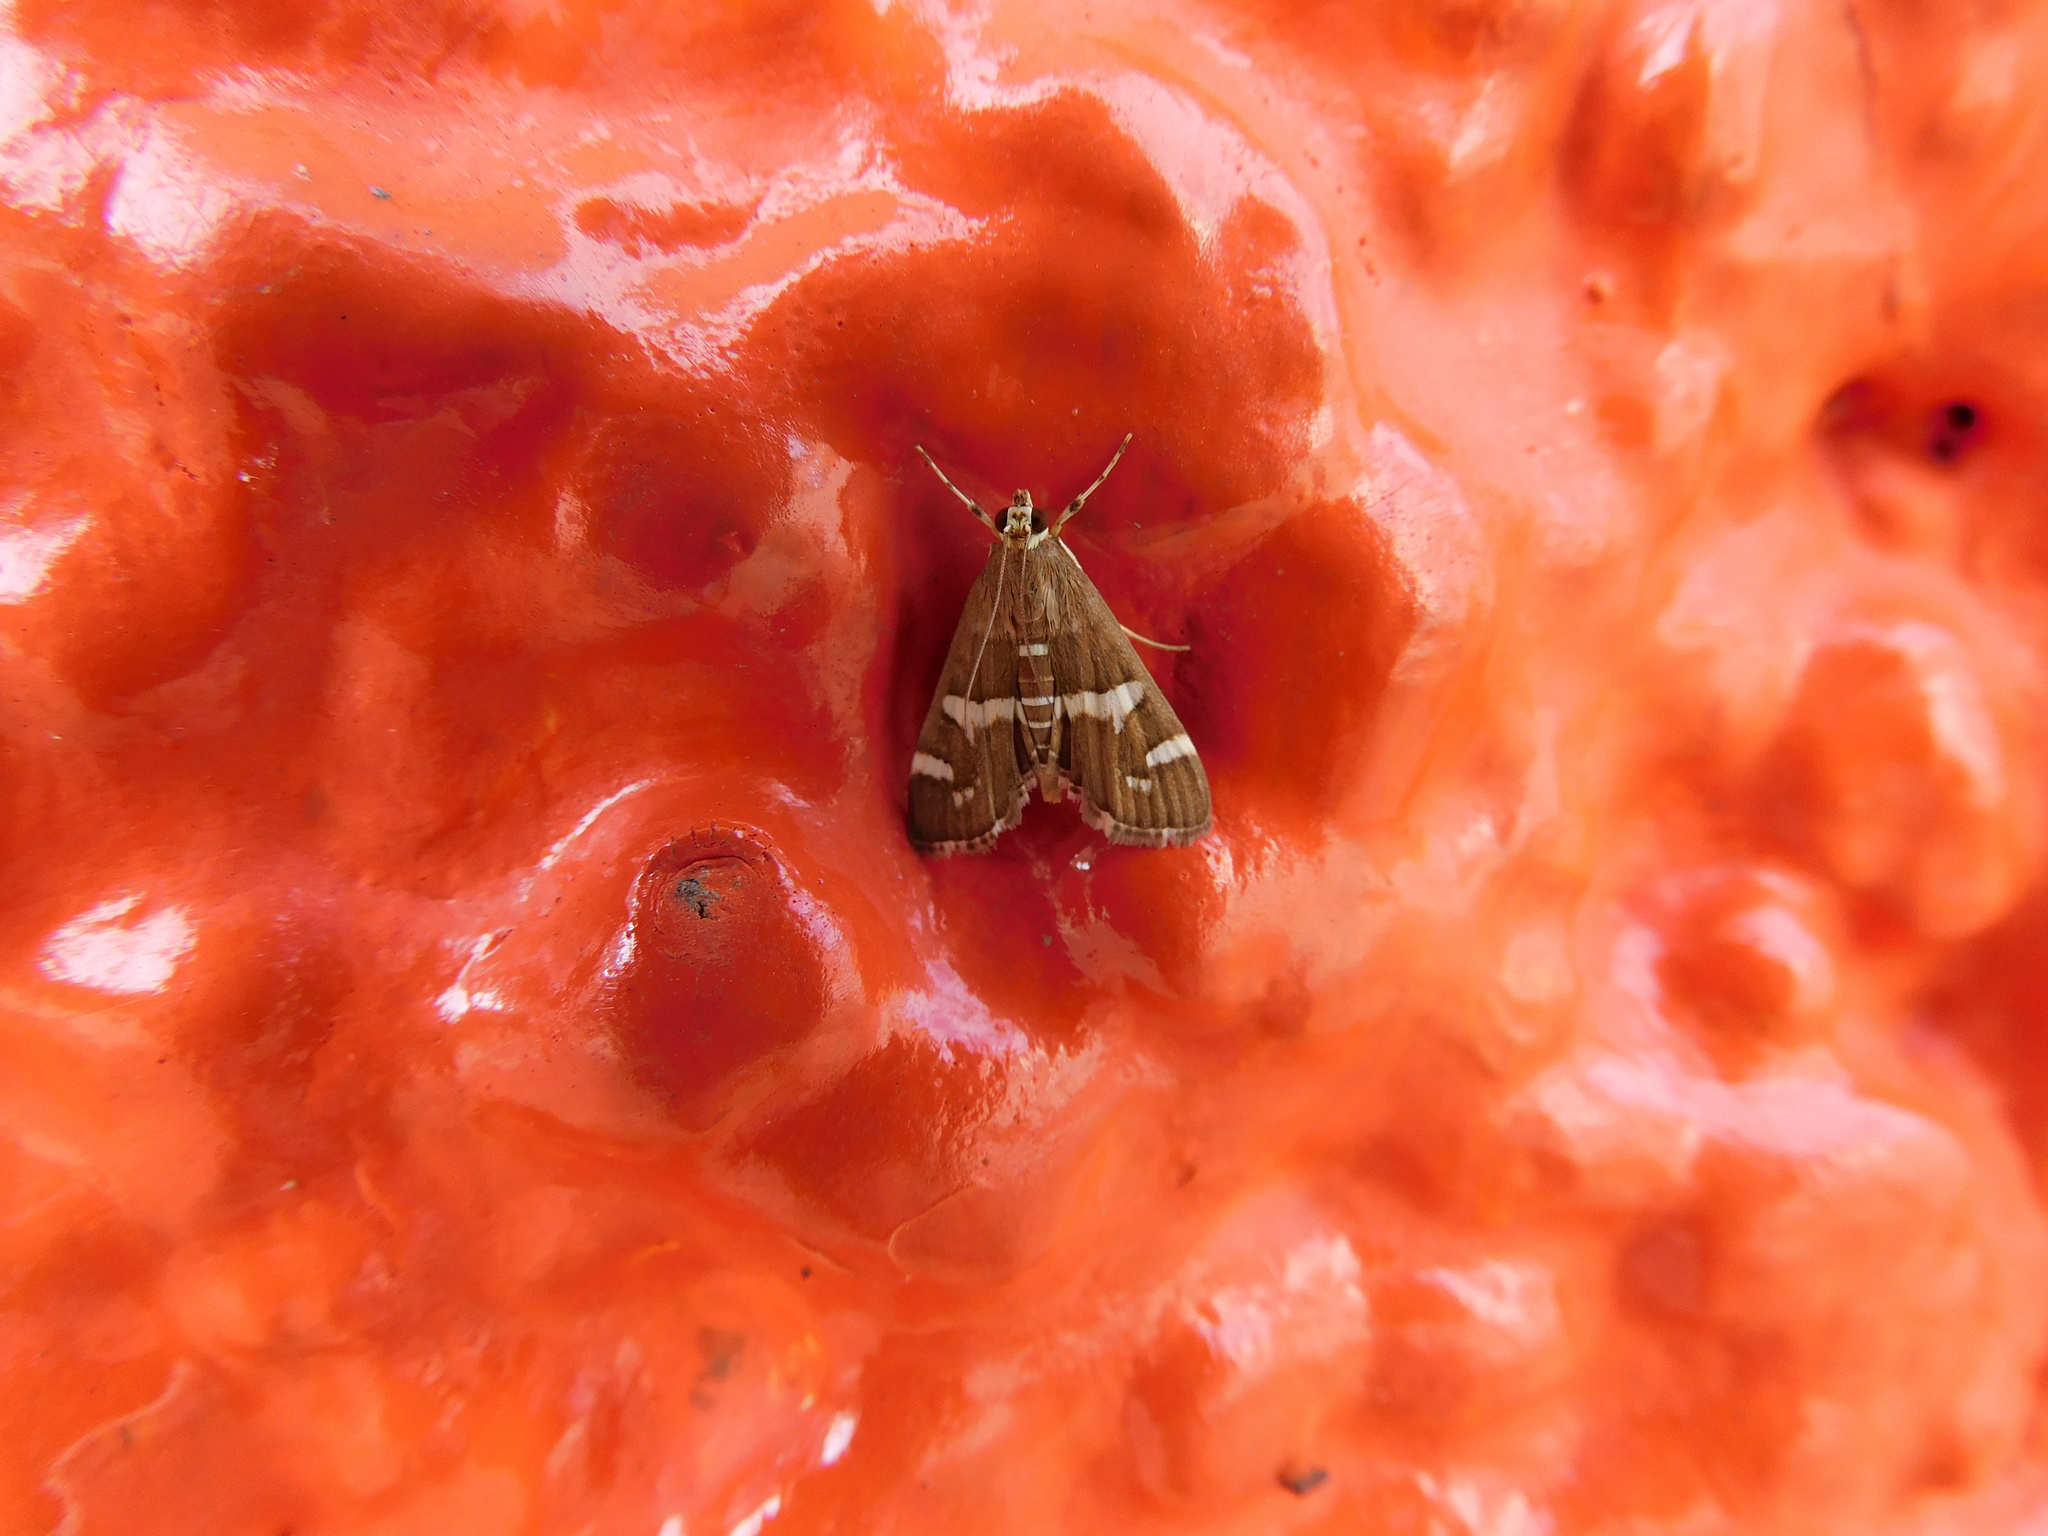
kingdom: Animalia
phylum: Arthropoda
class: Insecta
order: Lepidoptera
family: Crambidae
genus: Spoladea
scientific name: Spoladea recurvalis
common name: Beet webworm moth
